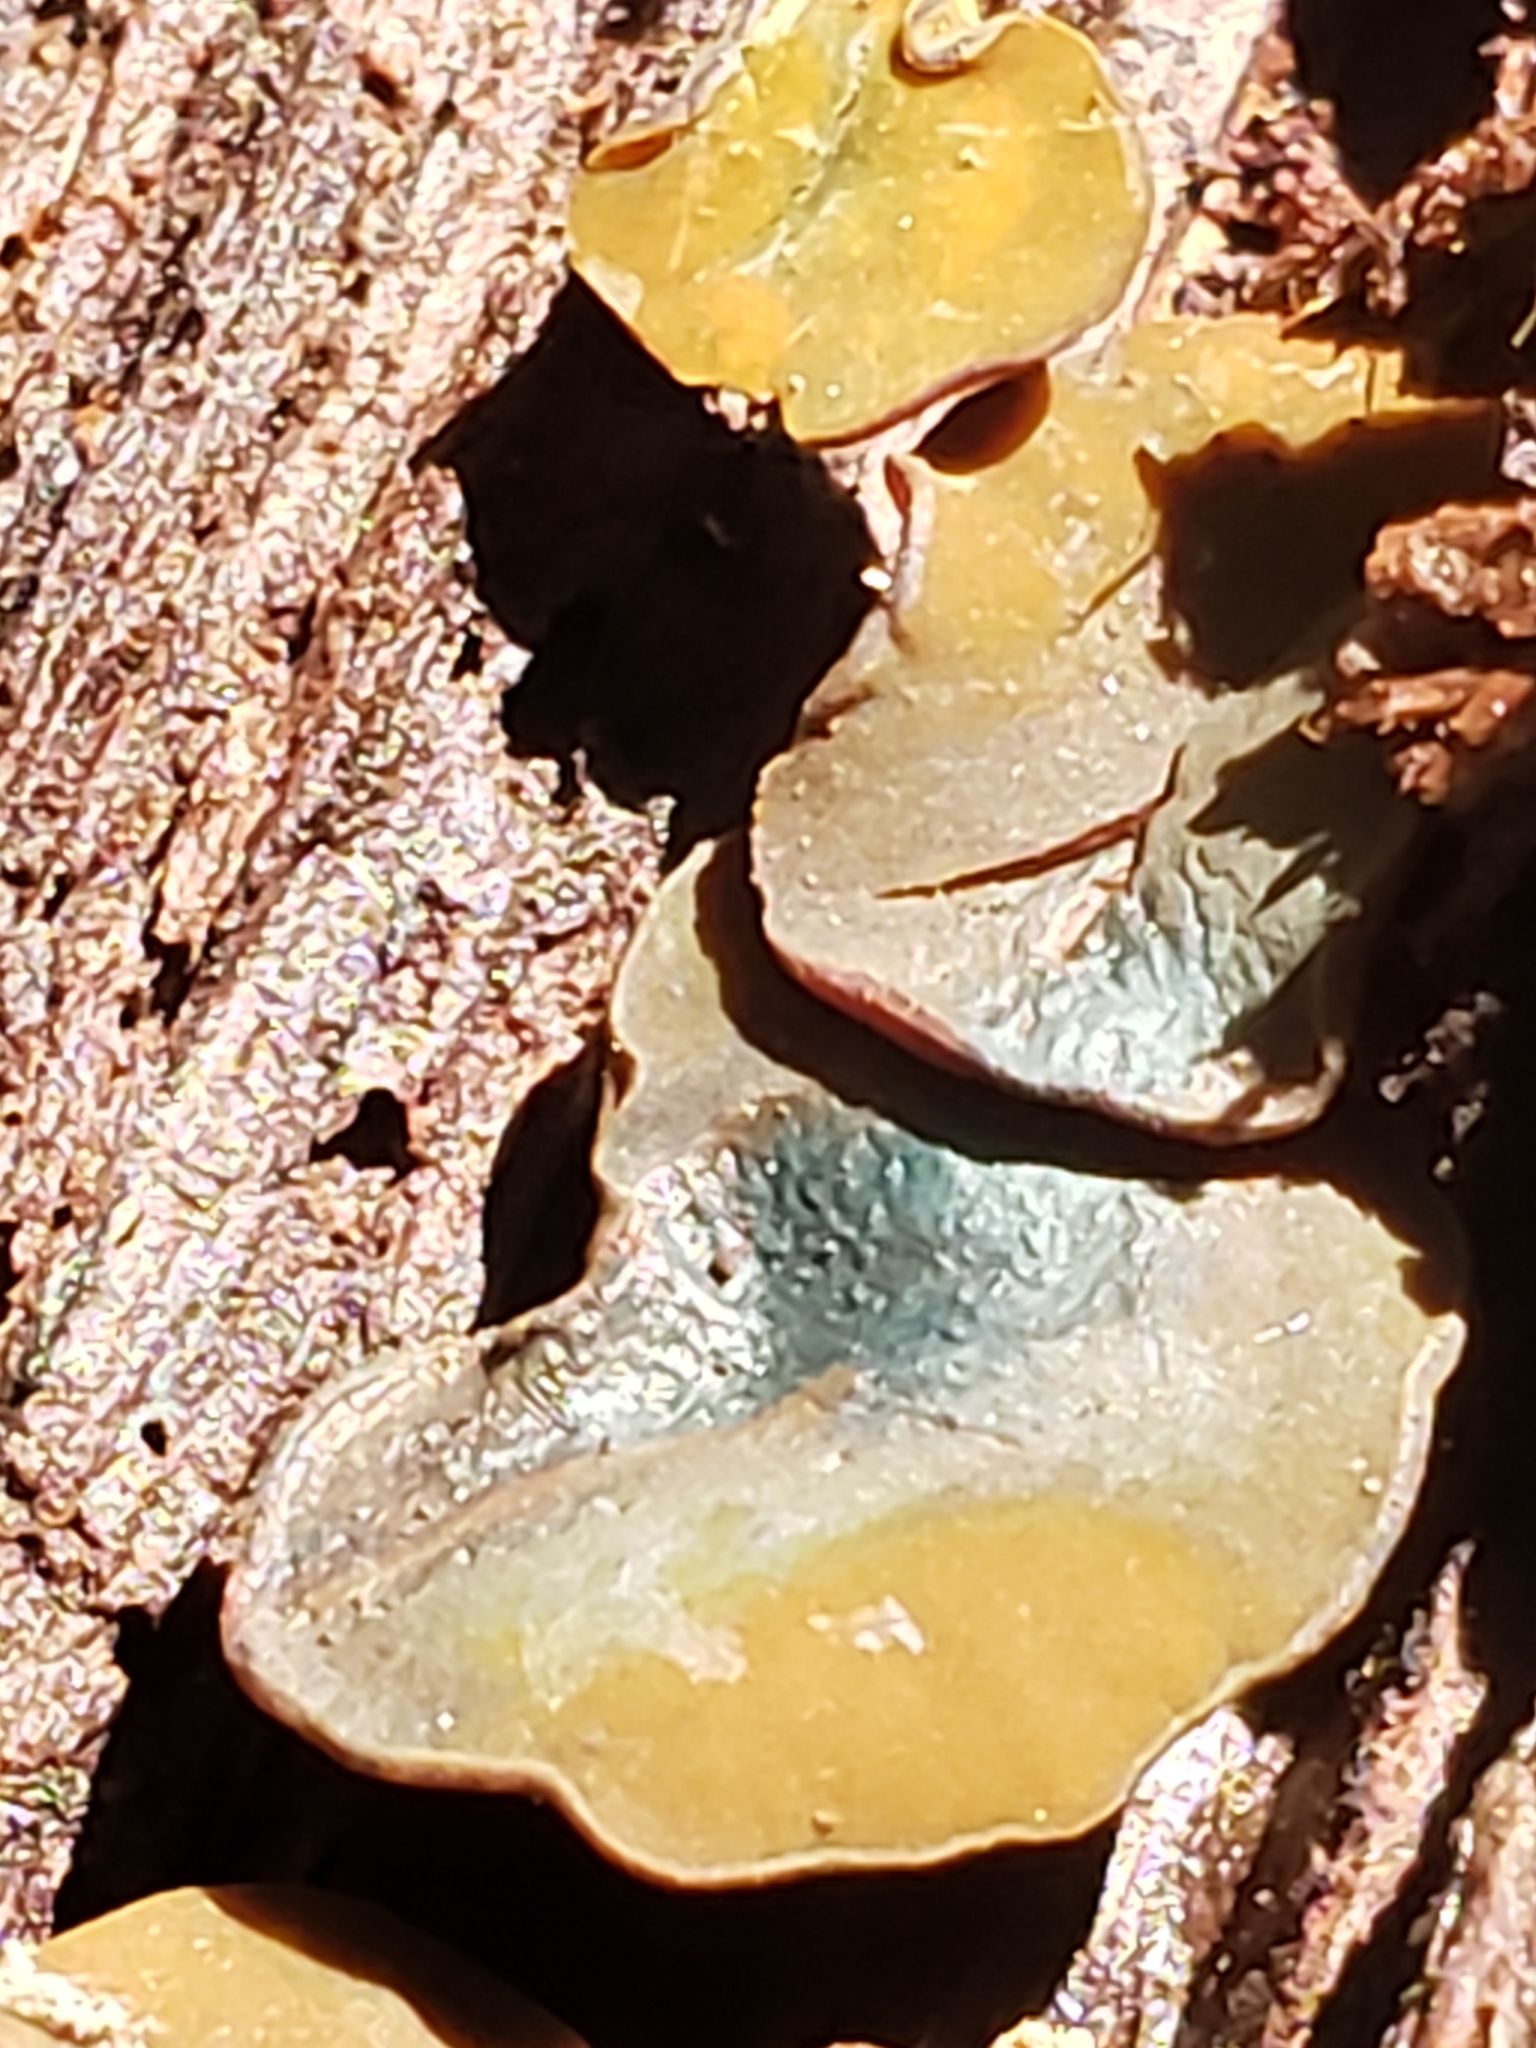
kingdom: Fungi
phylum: Ascomycota
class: Leotiomycetes
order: Helotiales
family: Cenangiaceae
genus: Chlorencoelia
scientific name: Chlorencoelia
